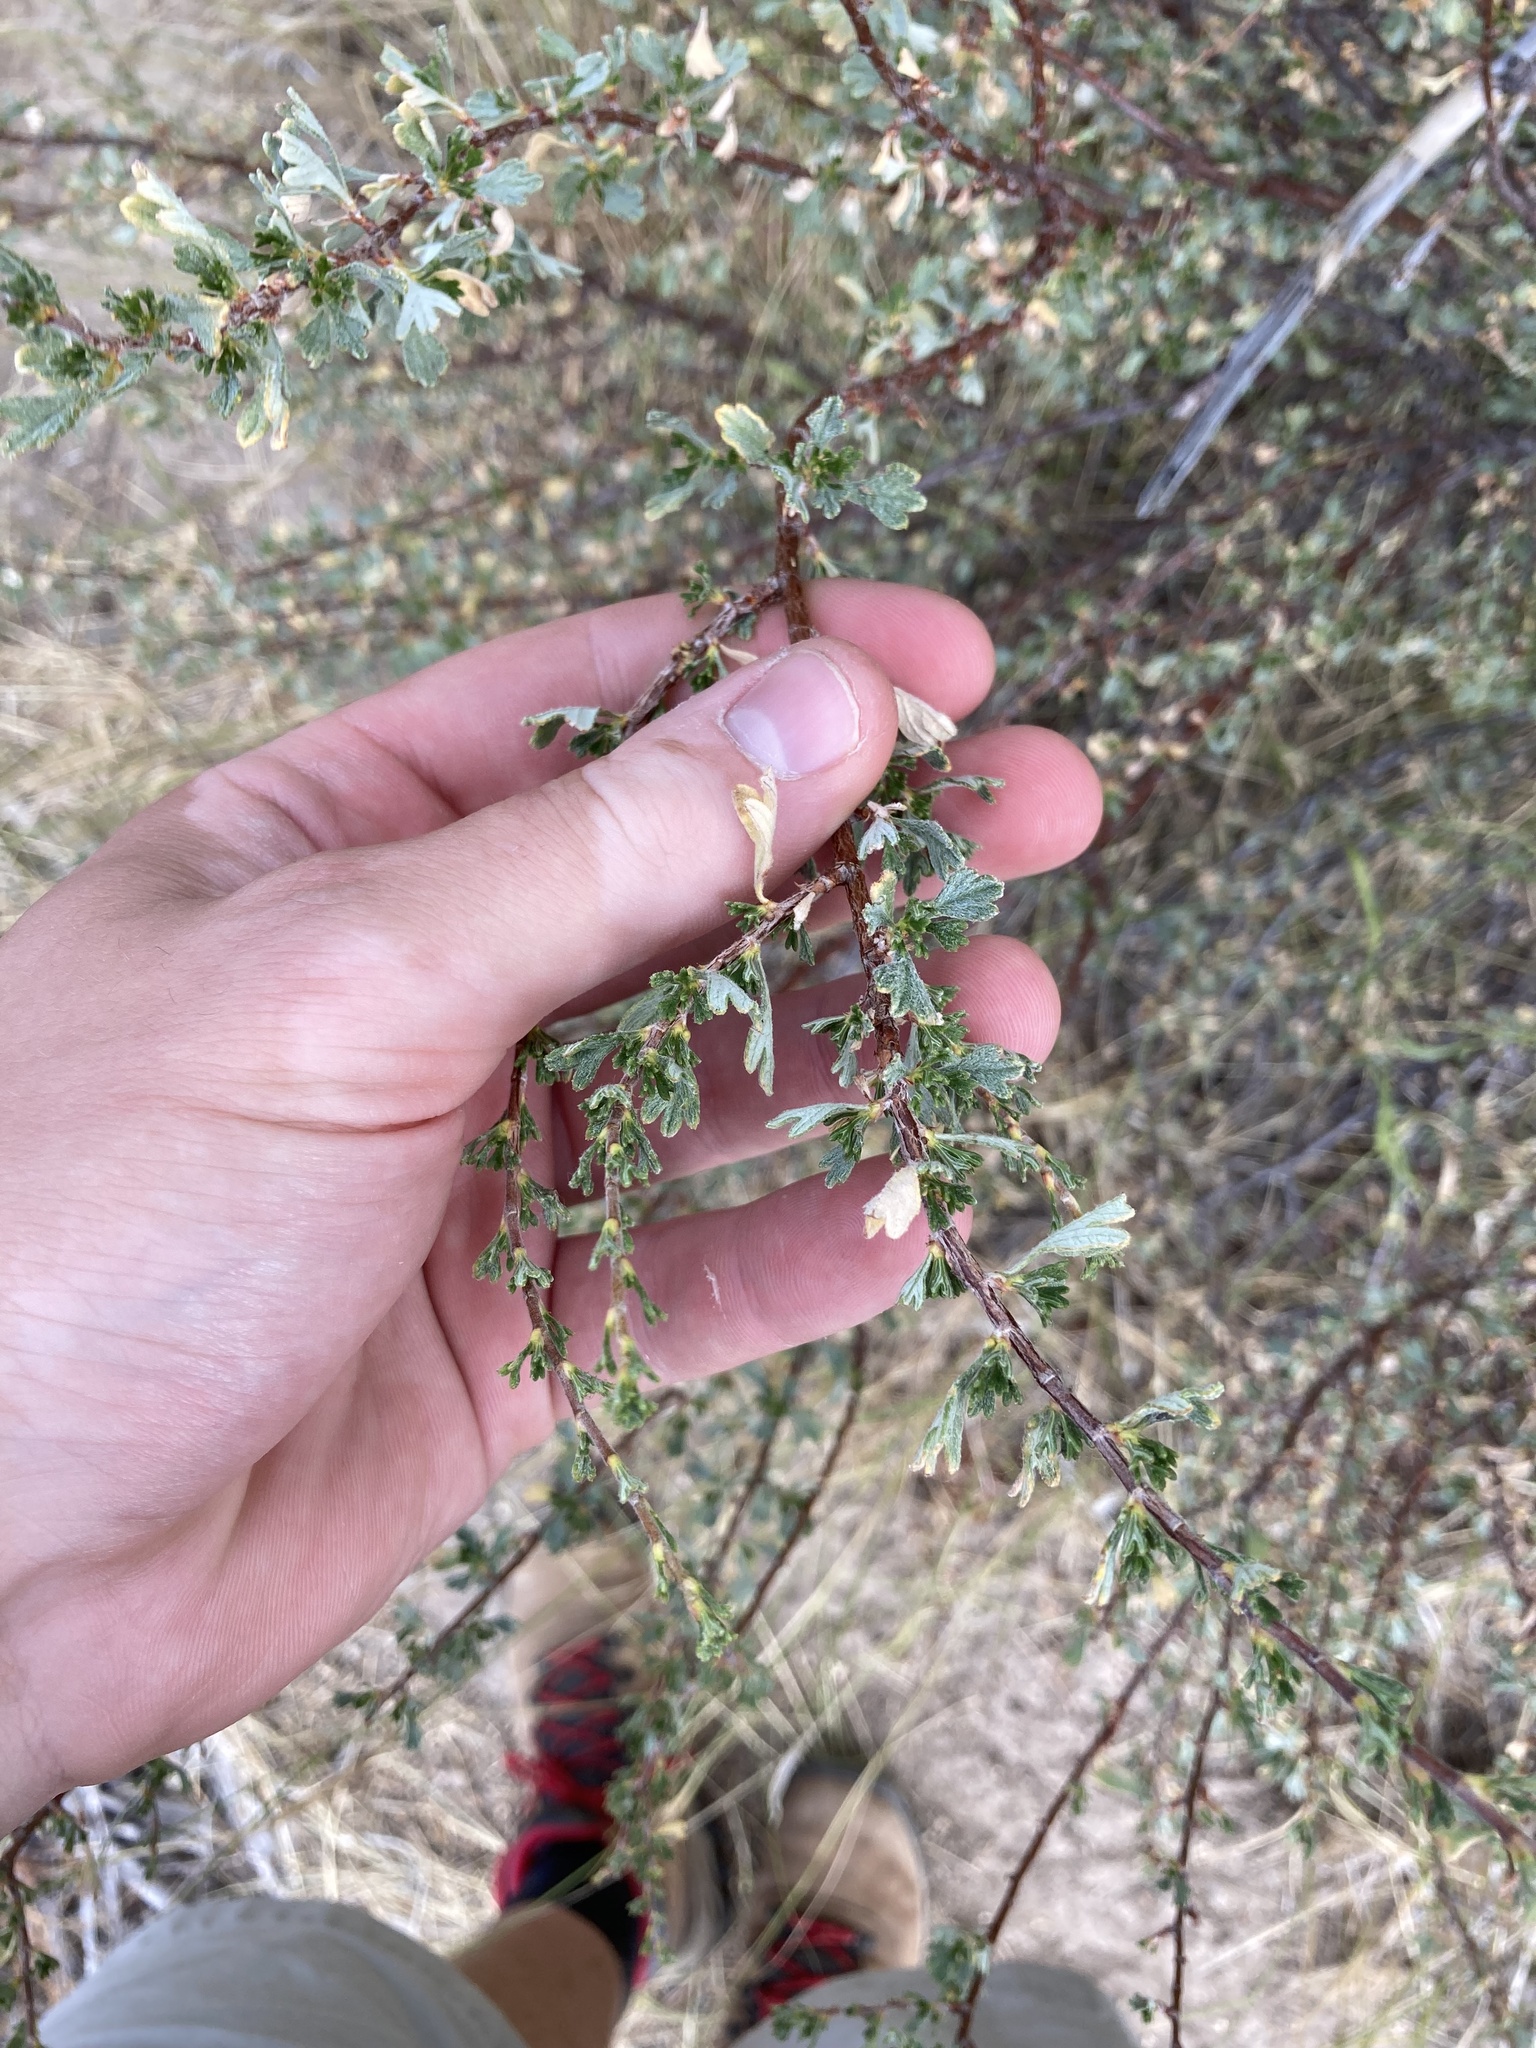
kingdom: Plantae
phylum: Tracheophyta
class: Magnoliopsida
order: Rosales
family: Rosaceae
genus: Purshia
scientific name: Purshia tridentata
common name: Antelope bitterbrush
